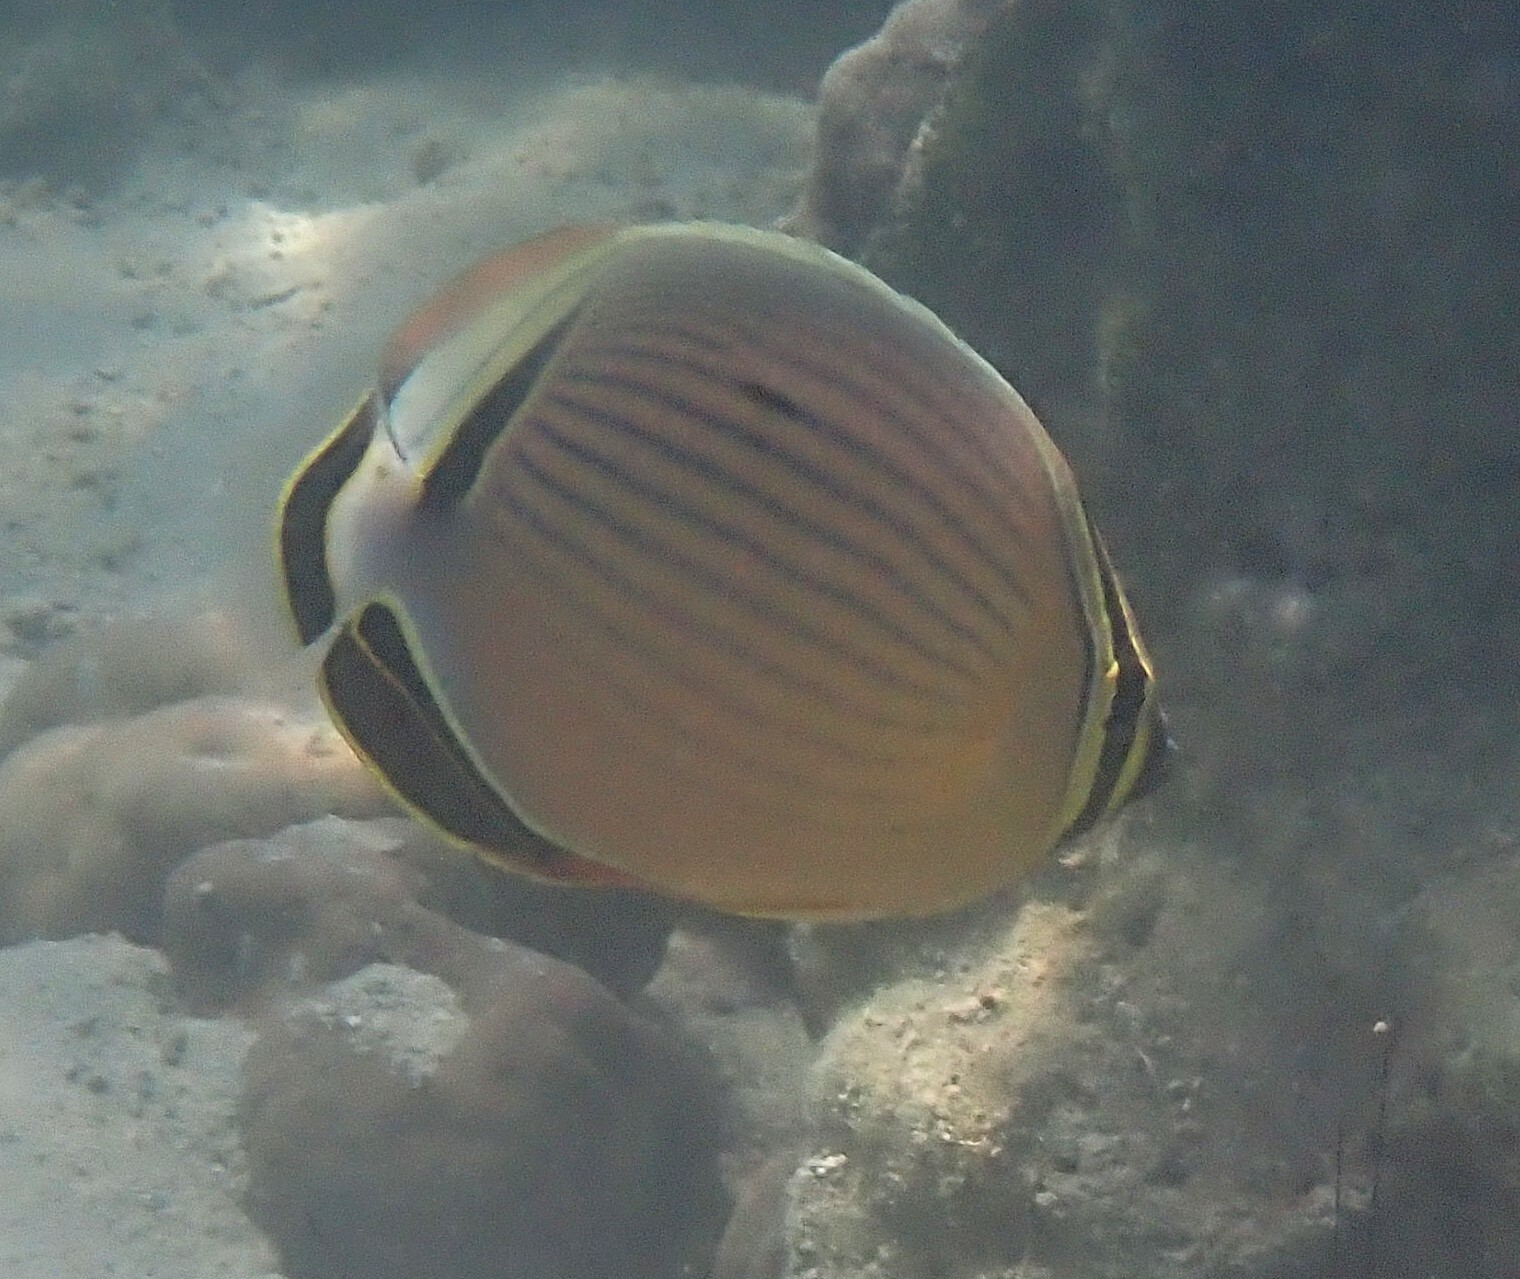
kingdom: Animalia
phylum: Chordata
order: Perciformes
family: Chaetodontidae
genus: Chaetodon
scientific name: Chaetodon lunulatus
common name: Redfin butterflyfish
